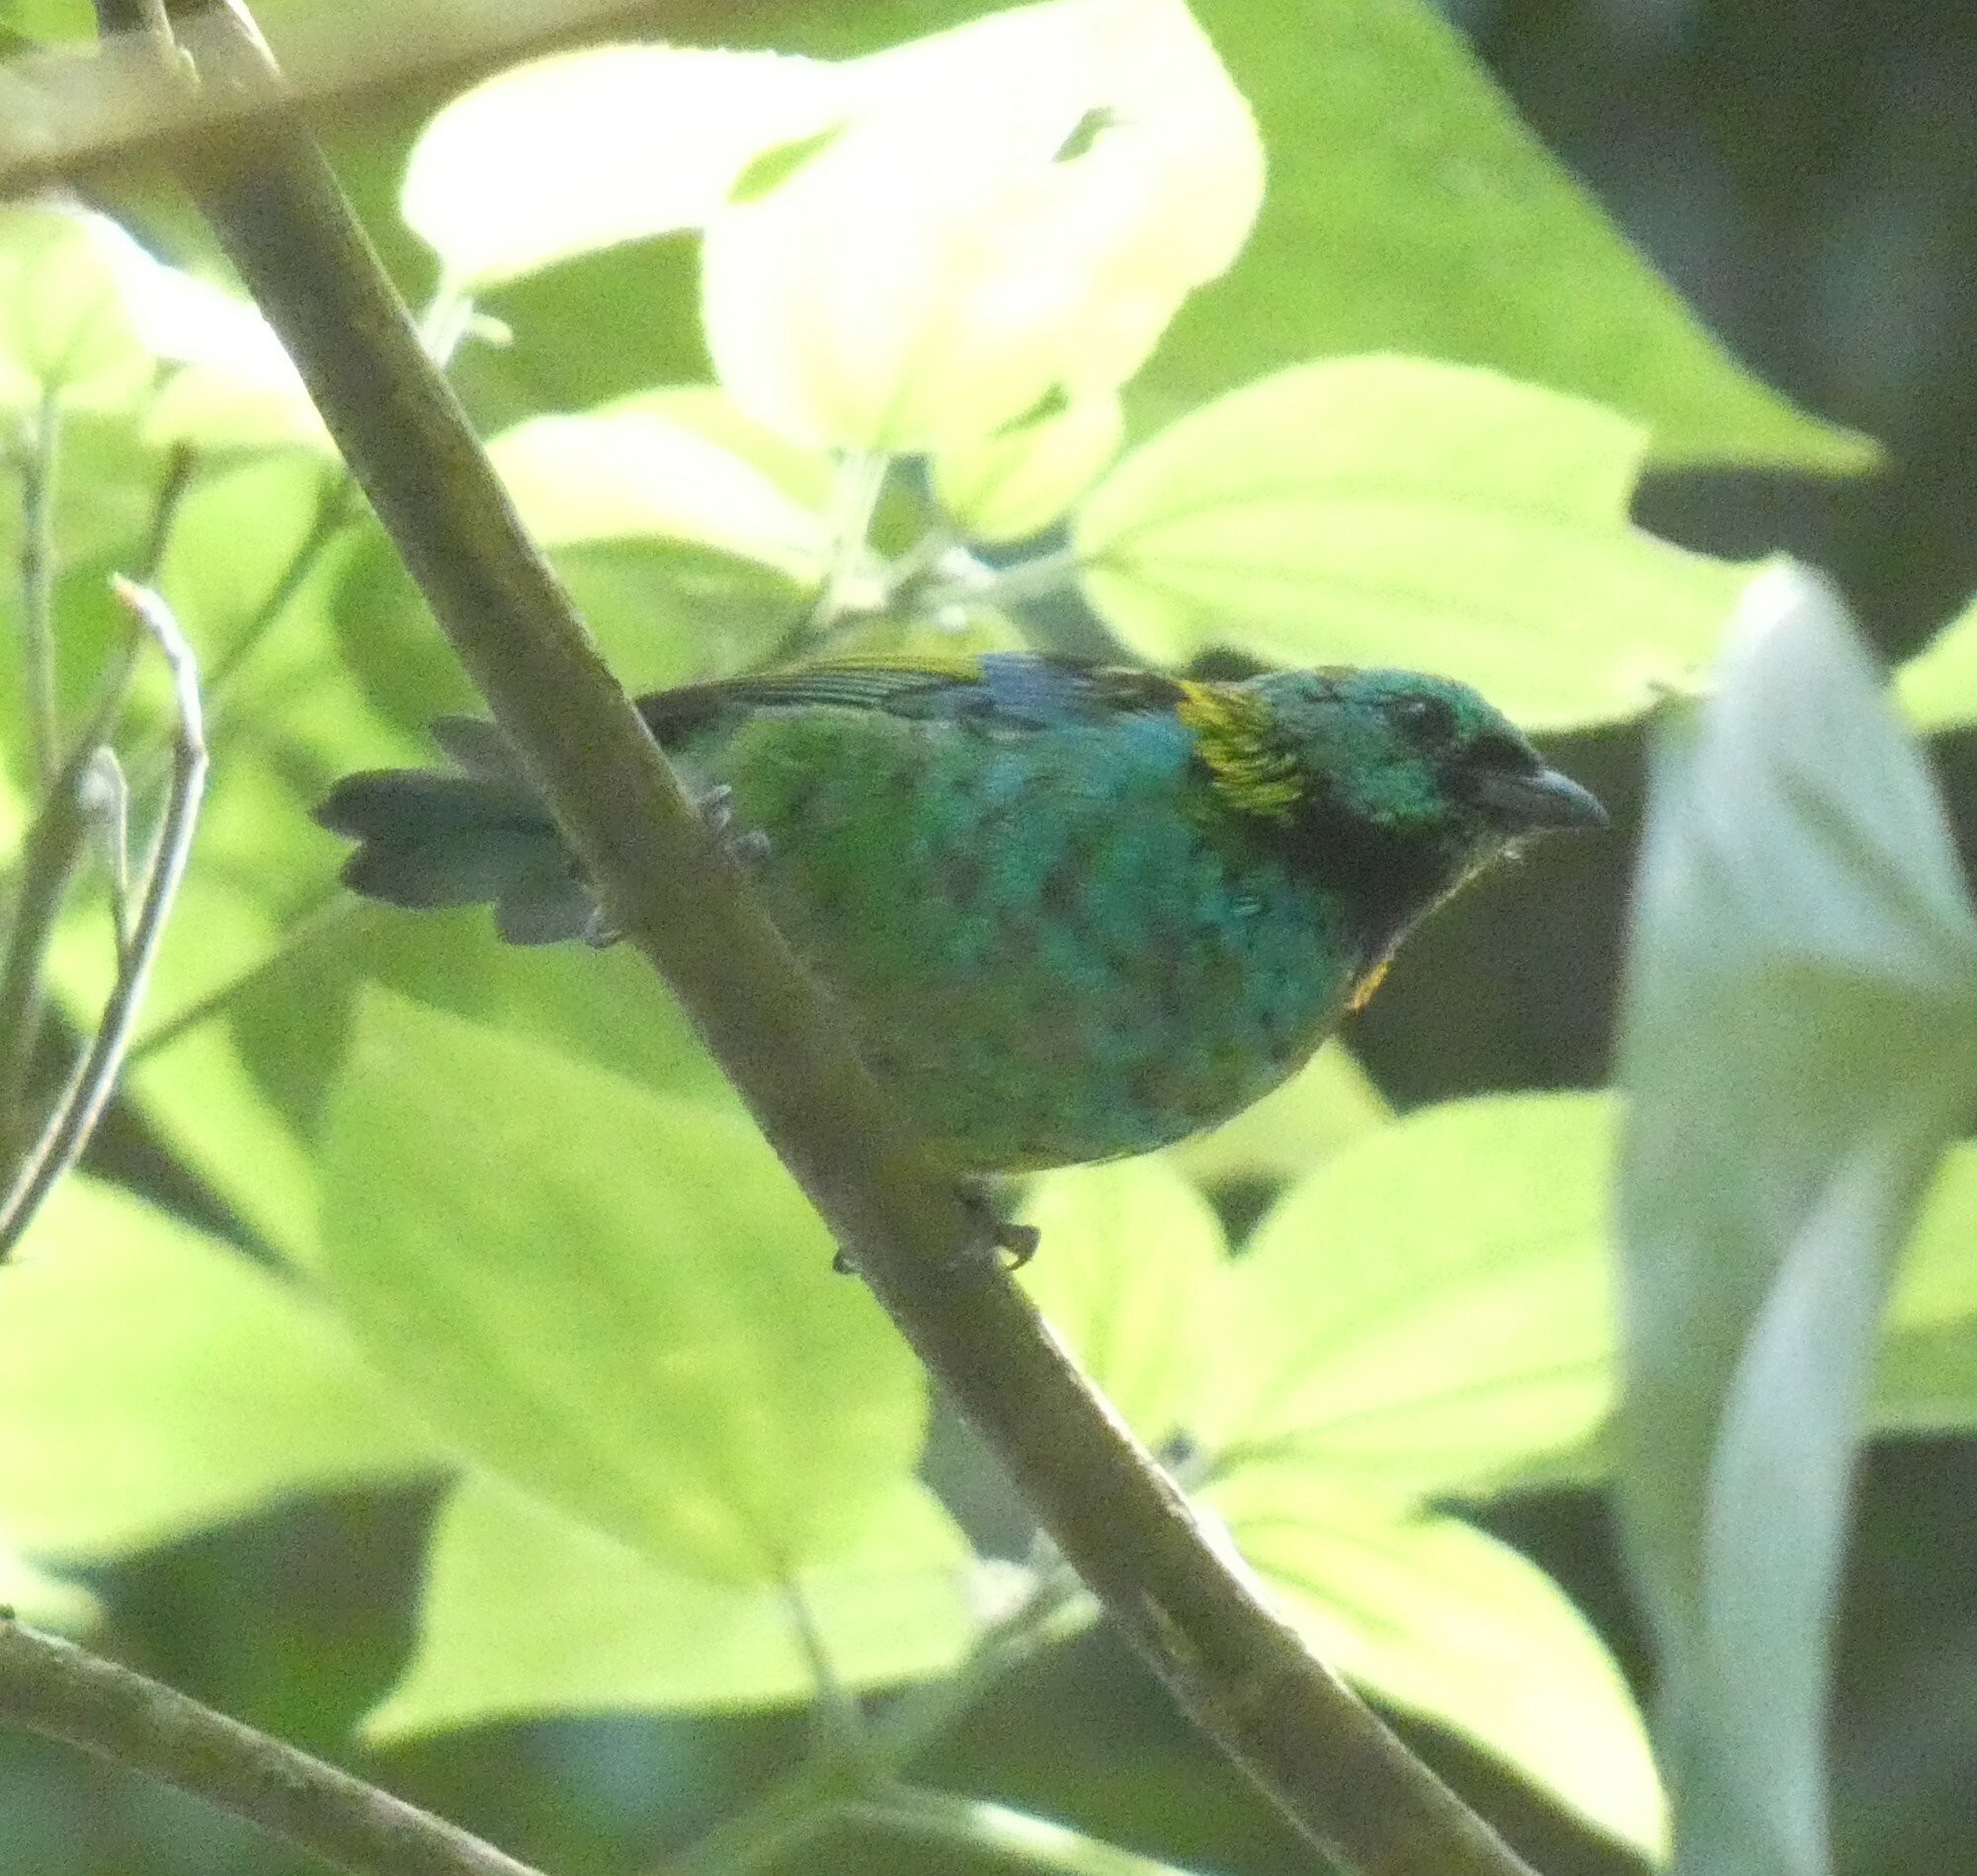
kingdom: Animalia
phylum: Chordata
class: Aves
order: Passeriformes
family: Thraupidae
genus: Tangara
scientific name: Tangara seledon
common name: Green-headed tanager
